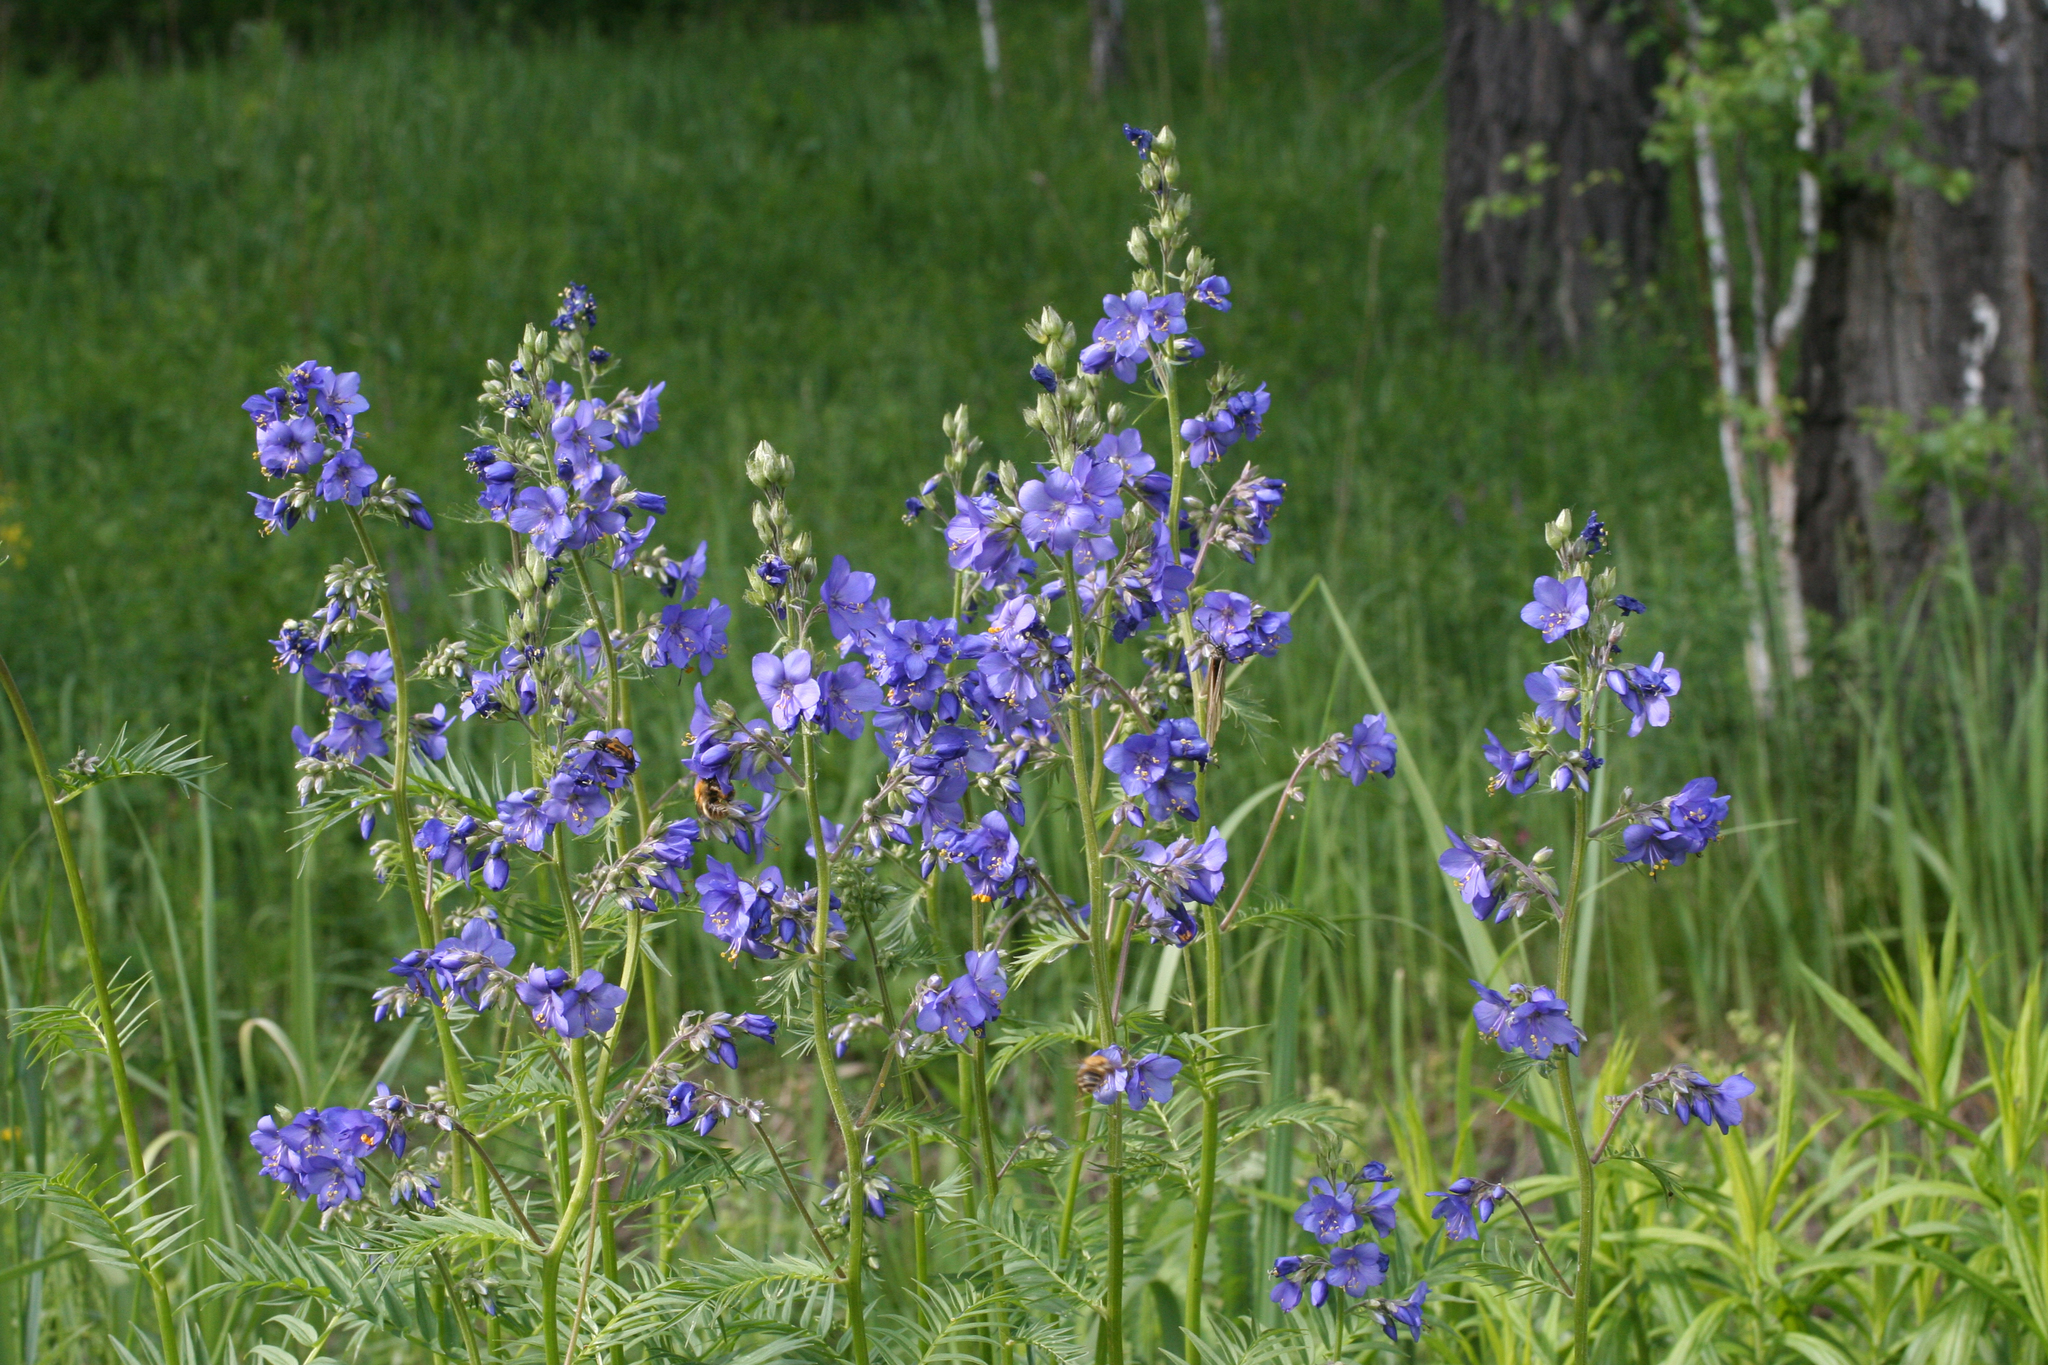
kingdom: Plantae
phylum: Tracheophyta
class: Magnoliopsida
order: Ericales
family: Polemoniaceae
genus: Polemonium
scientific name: Polemonium caeruleum
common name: Jacob's-ladder
